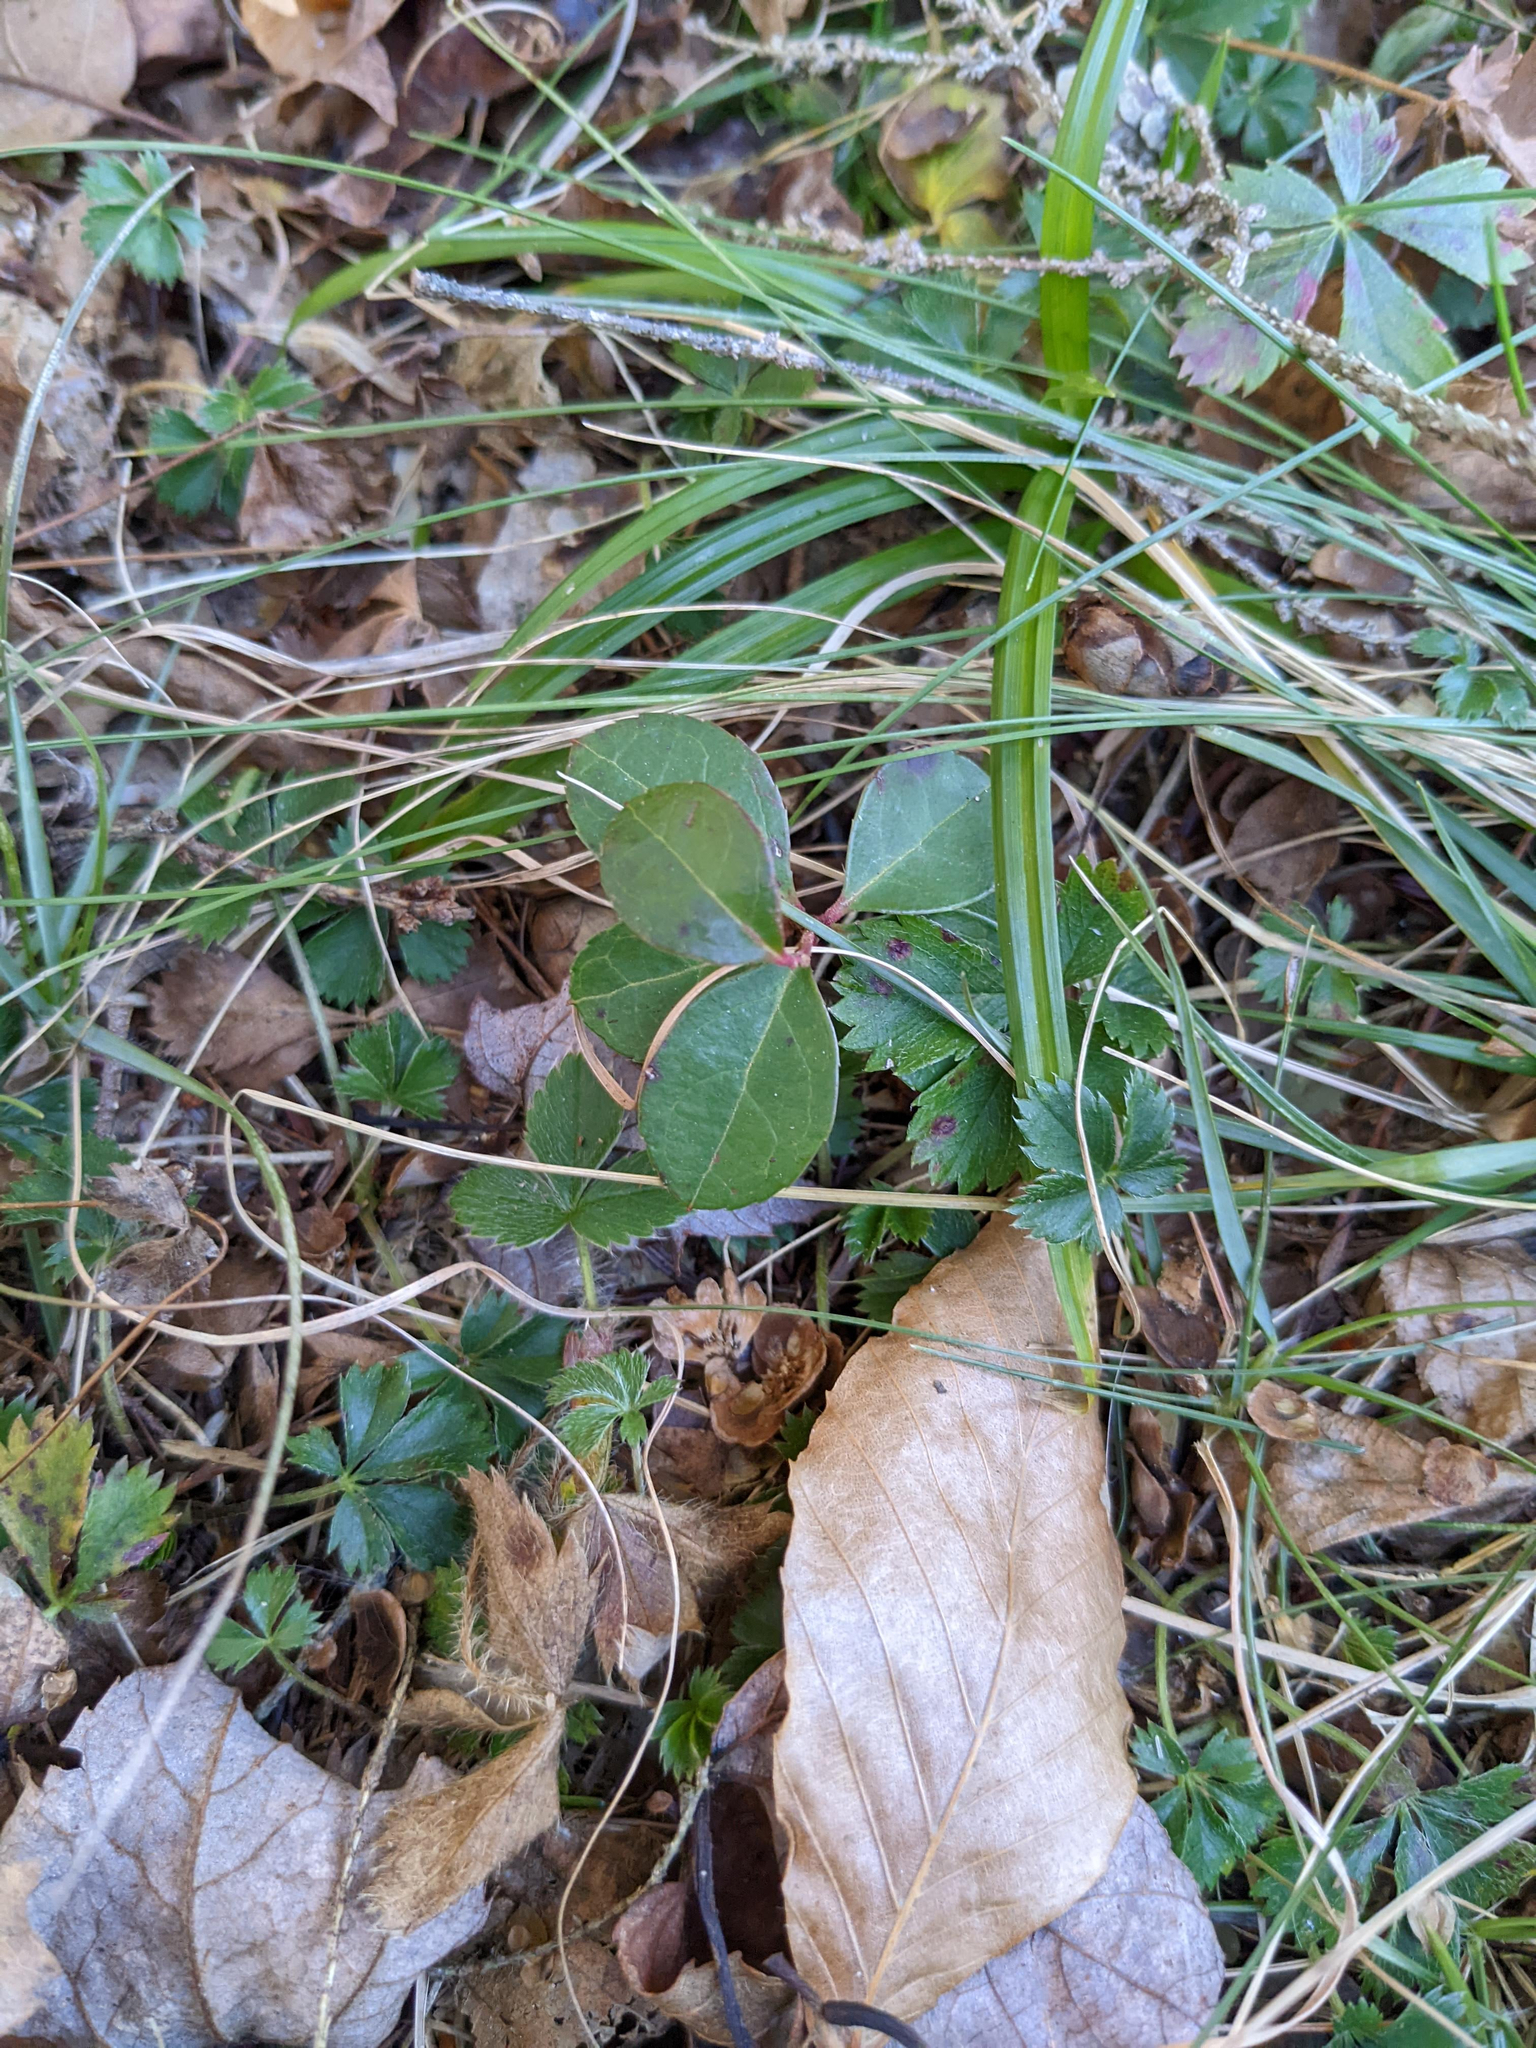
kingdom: Plantae
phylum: Tracheophyta
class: Magnoliopsida
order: Ericales
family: Ericaceae
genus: Gaultheria
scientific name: Gaultheria procumbens
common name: Checkerberry
